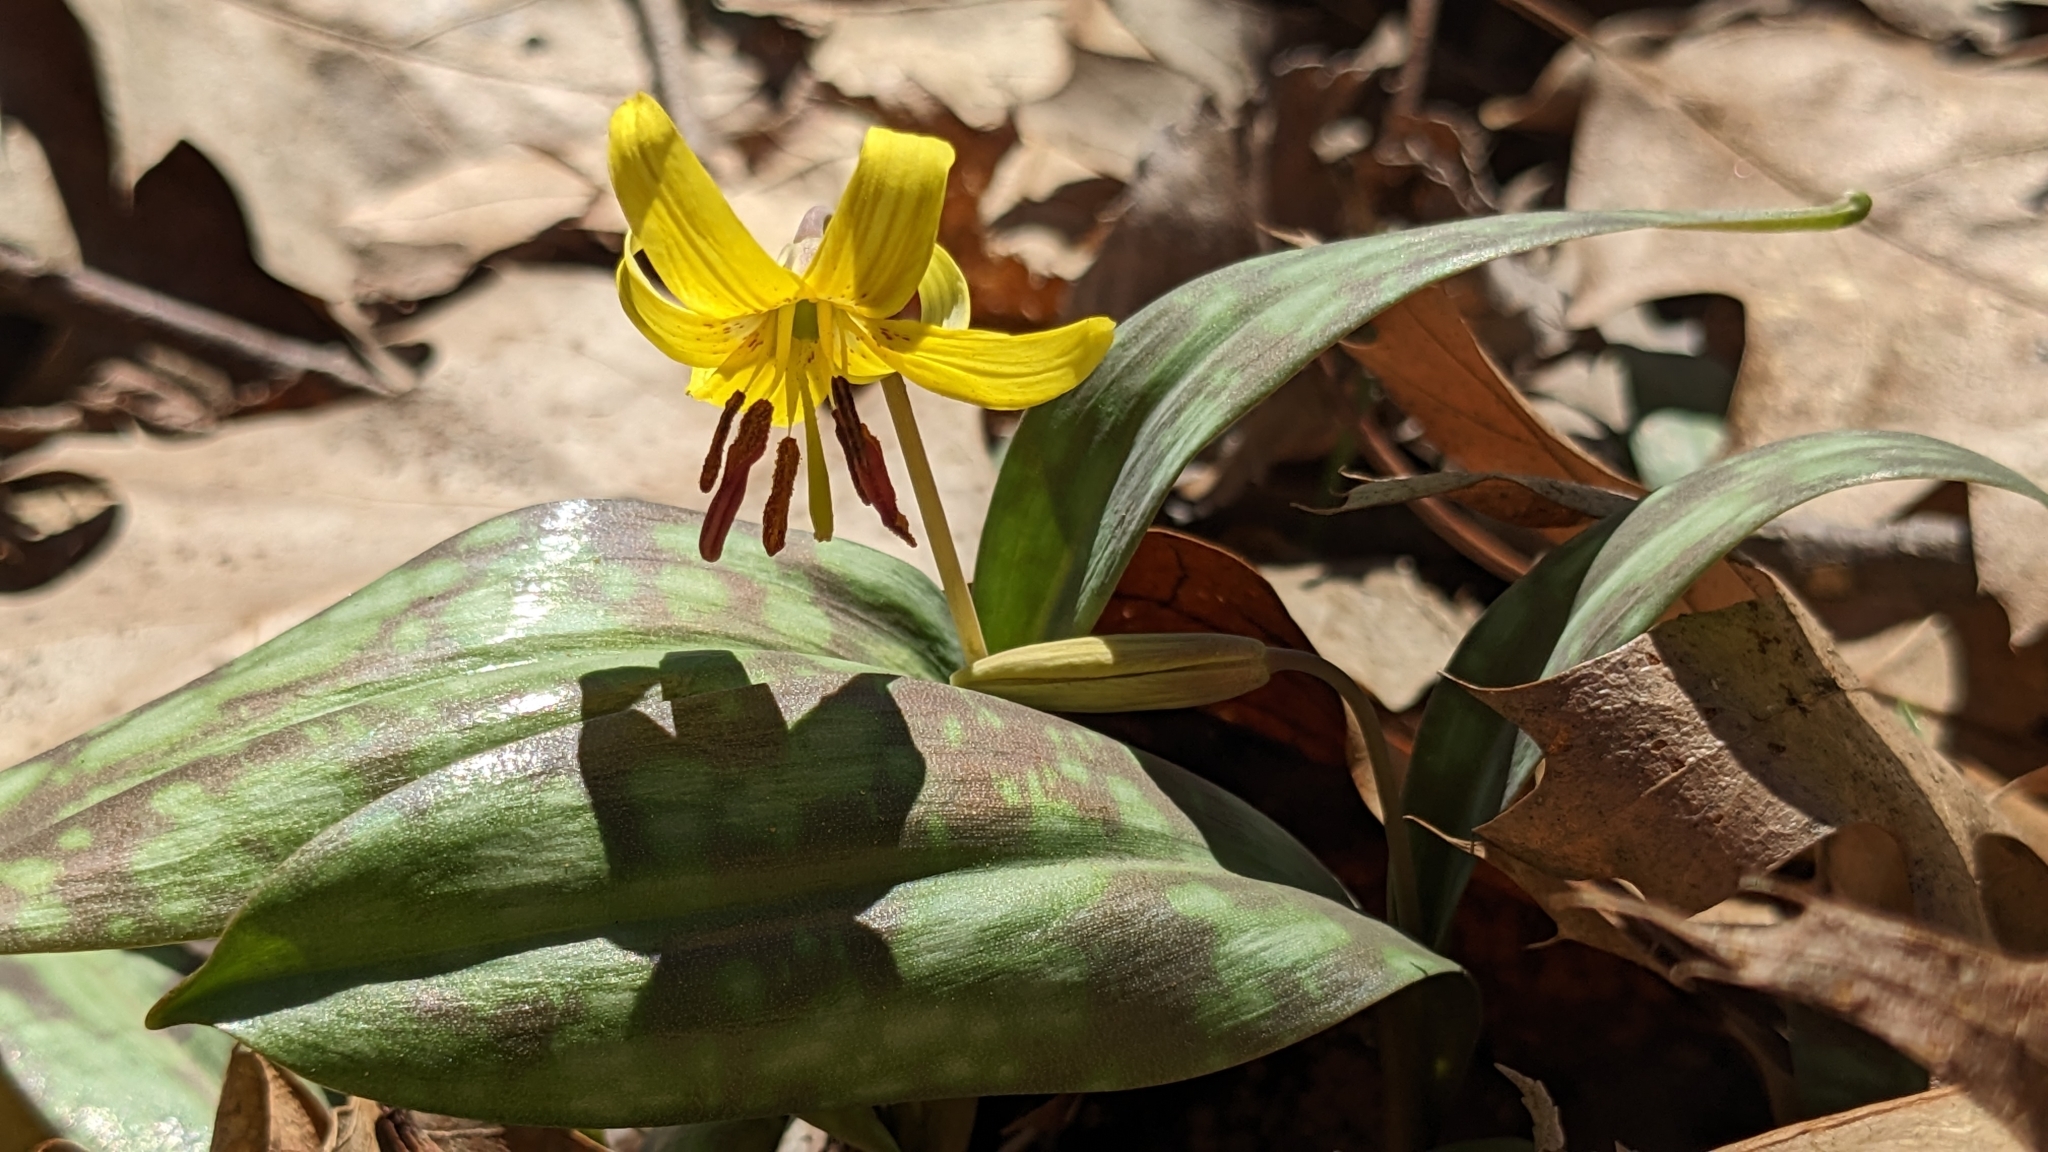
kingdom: Plantae
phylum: Tracheophyta
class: Liliopsida
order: Liliales
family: Liliaceae
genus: Erythronium
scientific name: Erythronium americanum
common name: Yellow adder's-tongue
